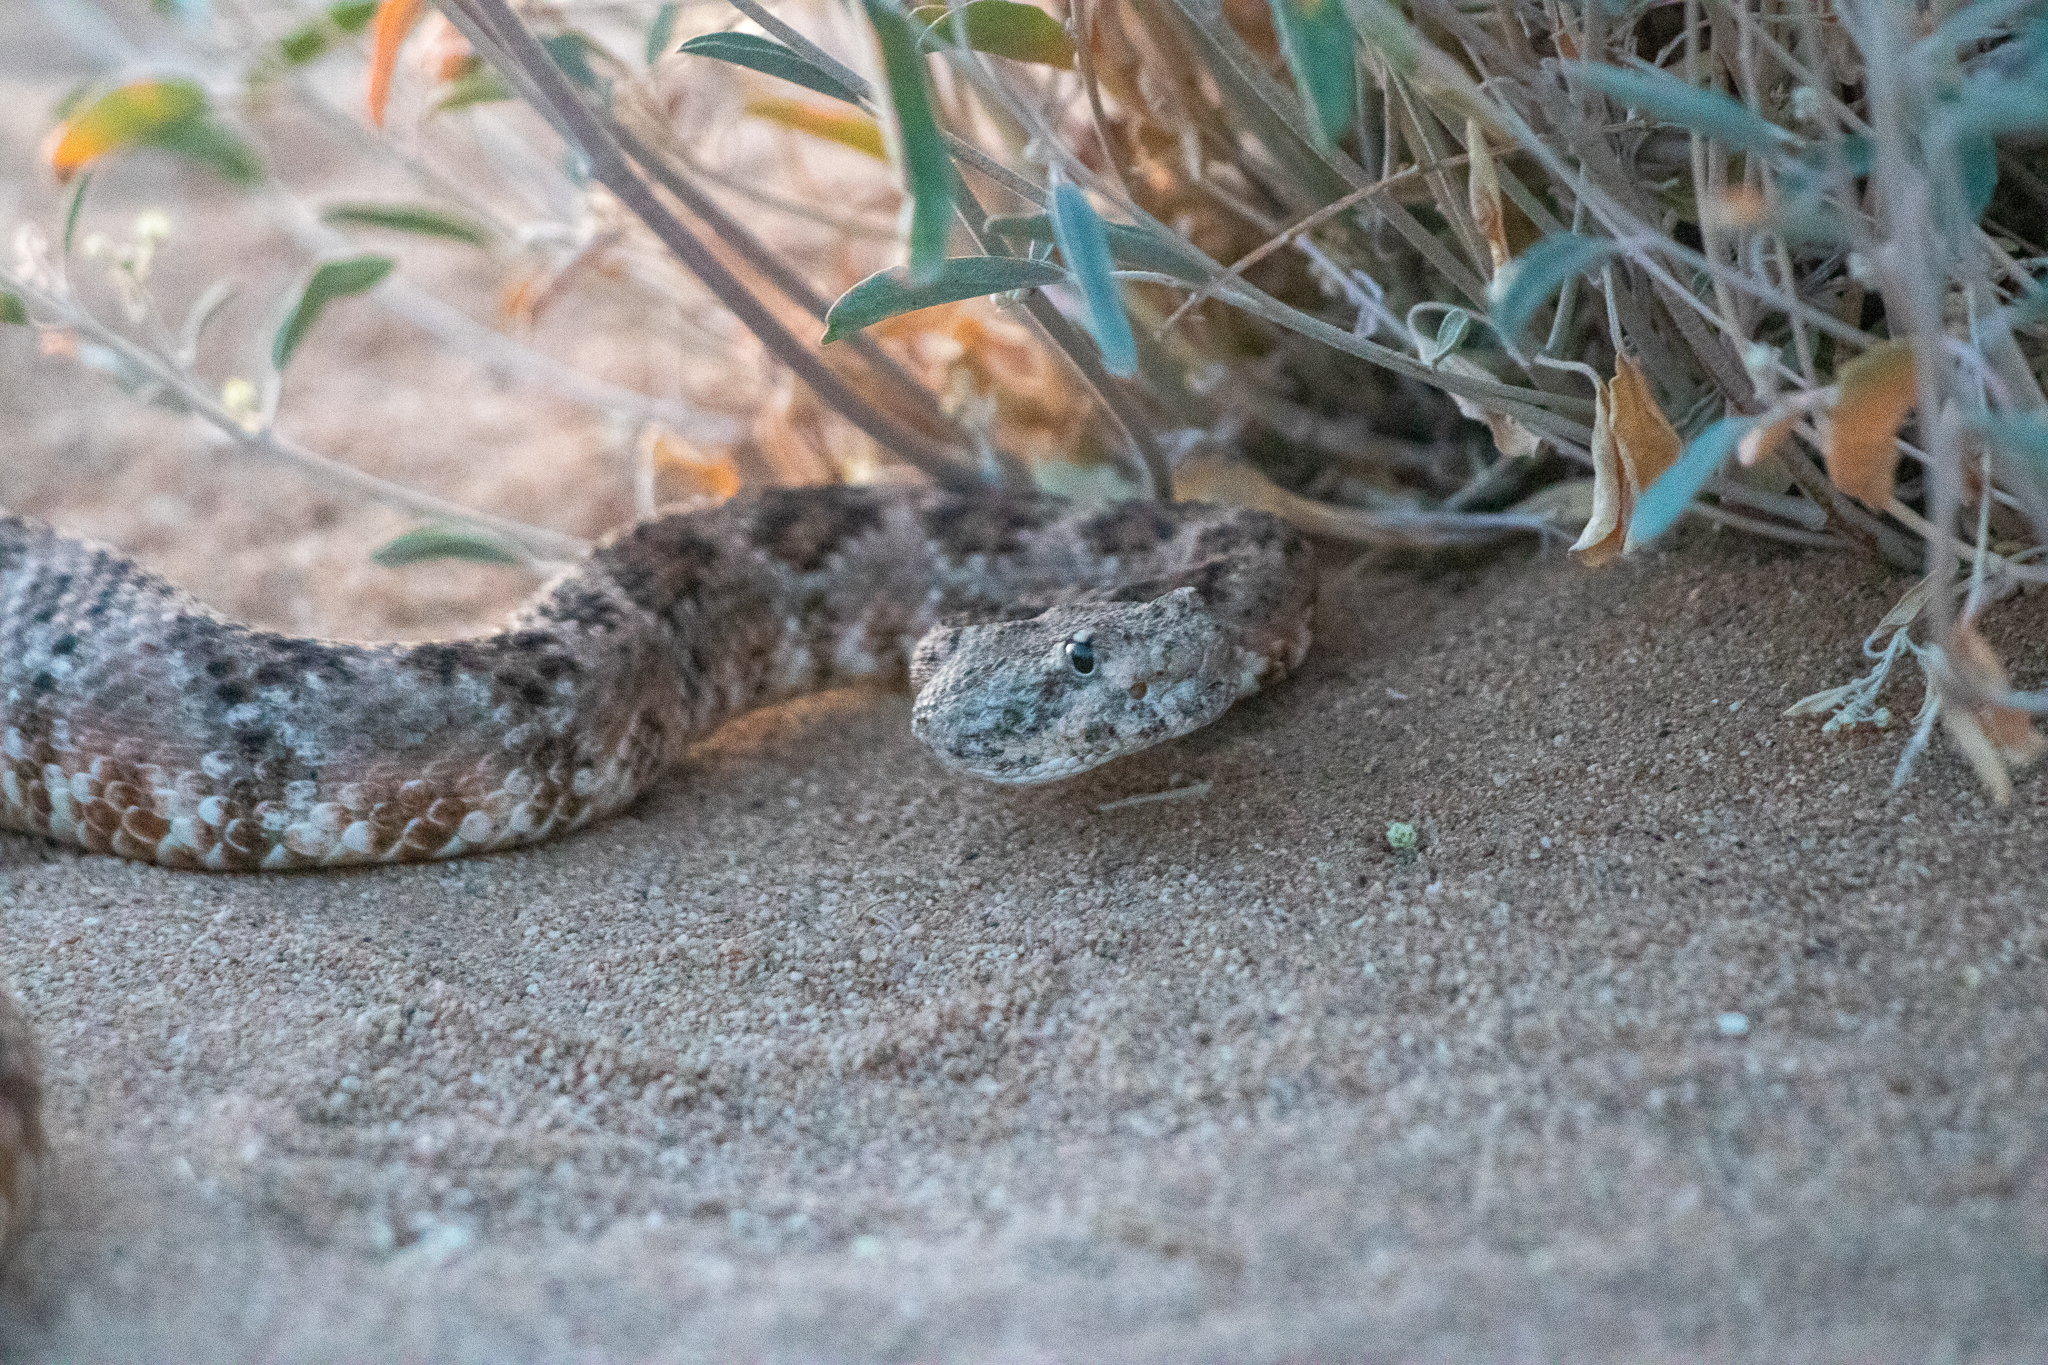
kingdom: Animalia
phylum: Chordata
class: Squamata
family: Viperidae
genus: Crotalus
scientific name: Crotalus pyrrhus
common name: Southwestern speckled rattlesnake
